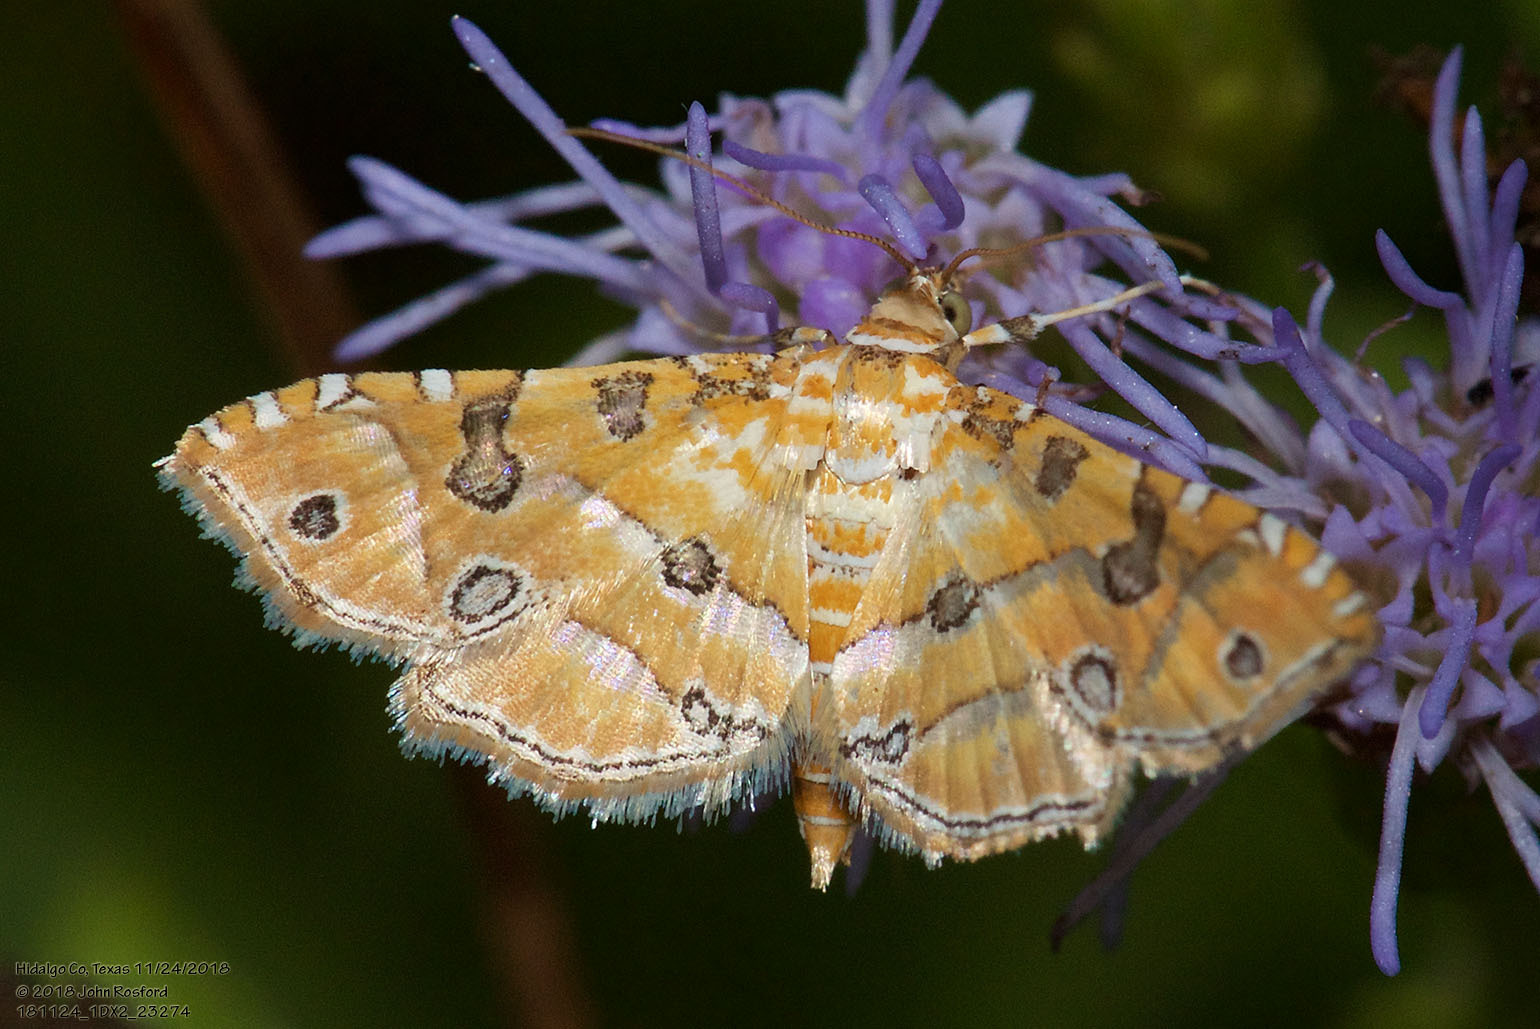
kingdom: Animalia
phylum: Arthropoda
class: Insecta
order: Lepidoptera
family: Crambidae
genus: Ommatospila
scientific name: Ommatospila narcaeusalis
